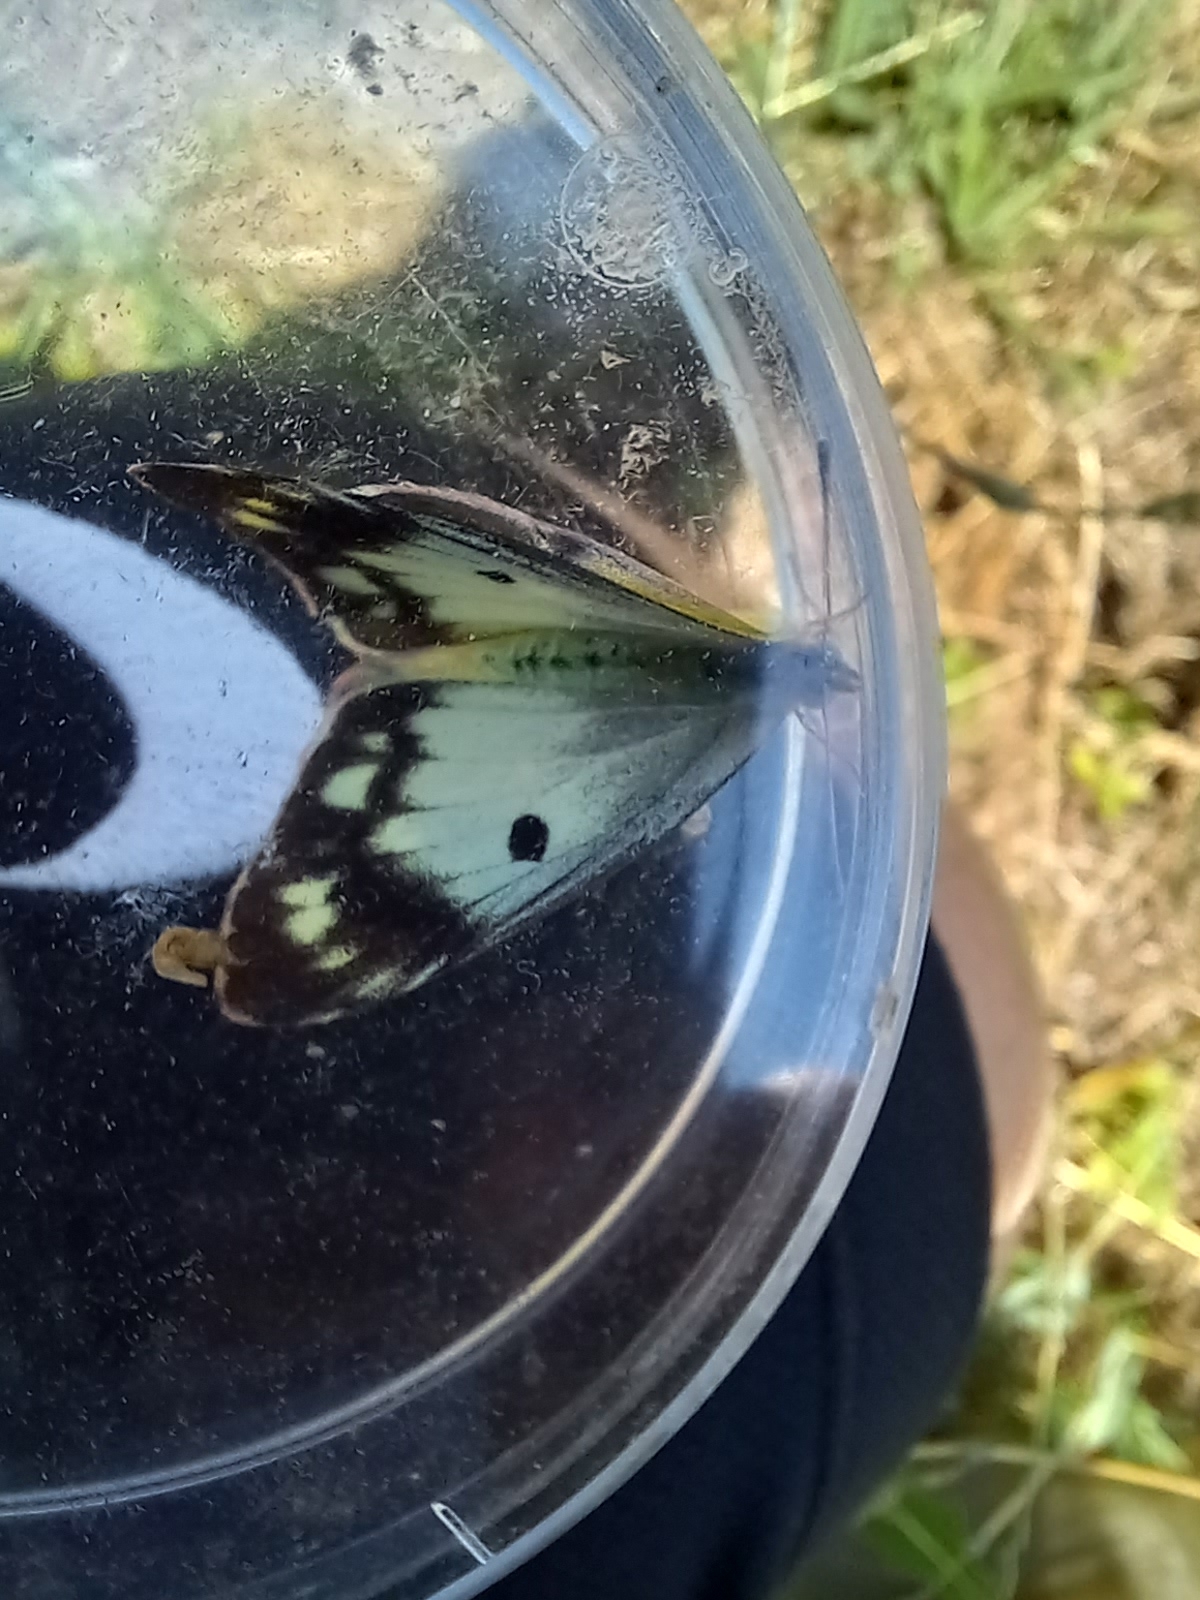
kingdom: Animalia
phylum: Arthropoda
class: Insecta
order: Lepidoptera
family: Pieridae
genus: Colias
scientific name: Colias croceus
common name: Clouded yellow
